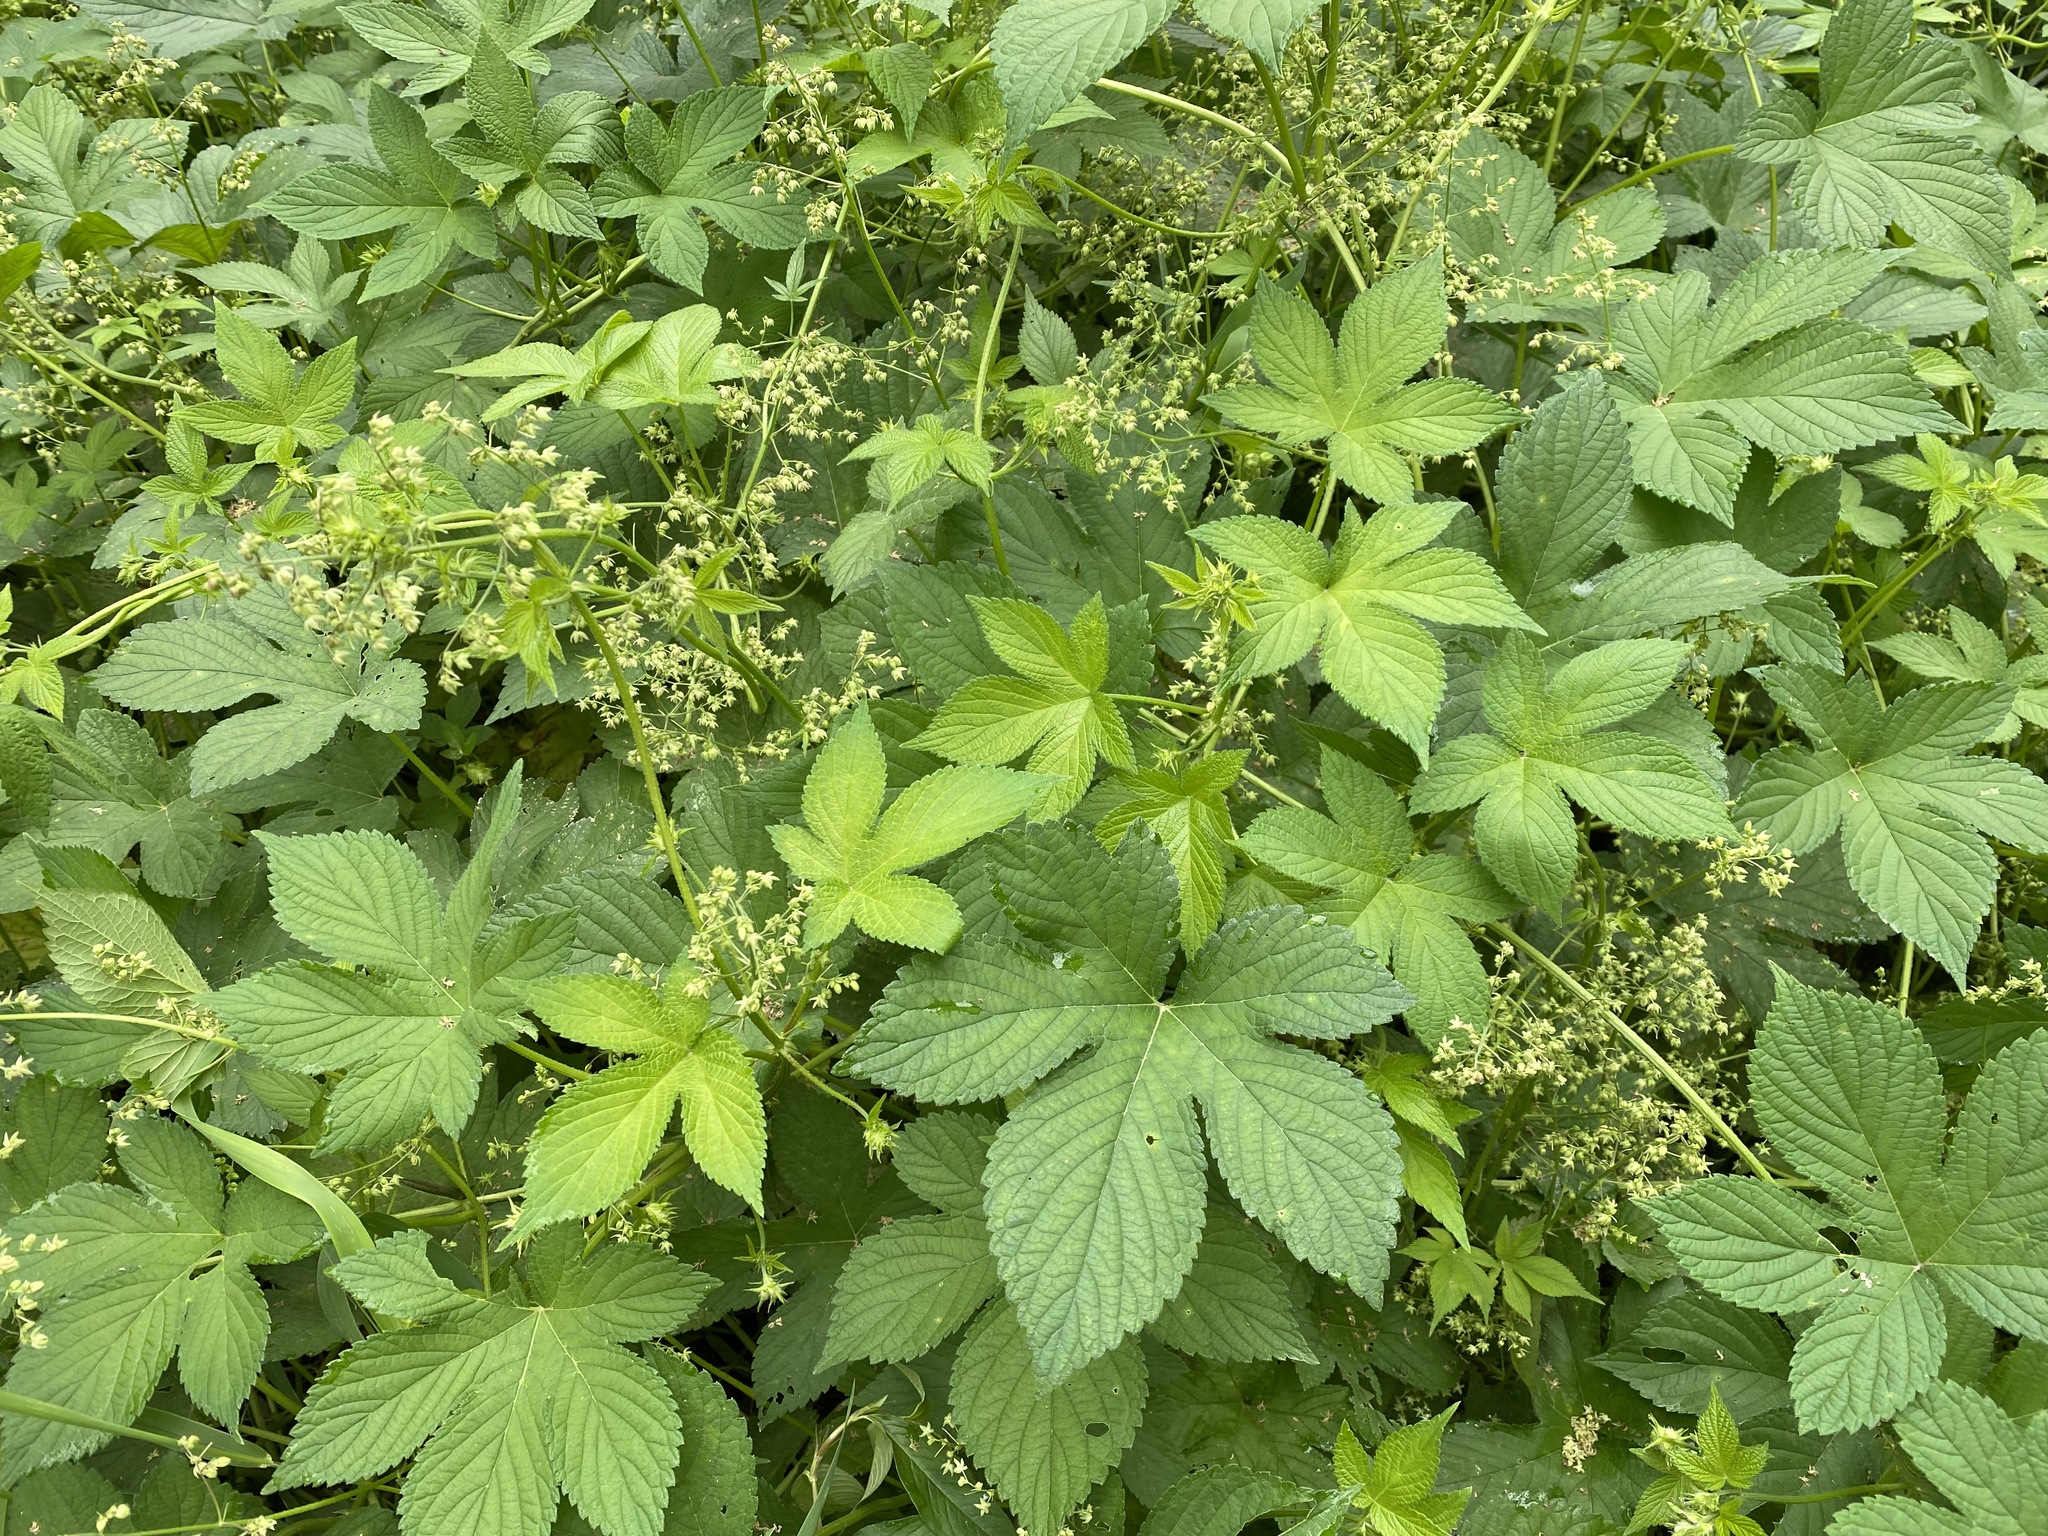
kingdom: Plantae
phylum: Tracheophyta
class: Magnoliopsida
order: Rosales
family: Cannabaceae
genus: Humulus
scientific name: Humulus scandens
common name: Japanese hop
